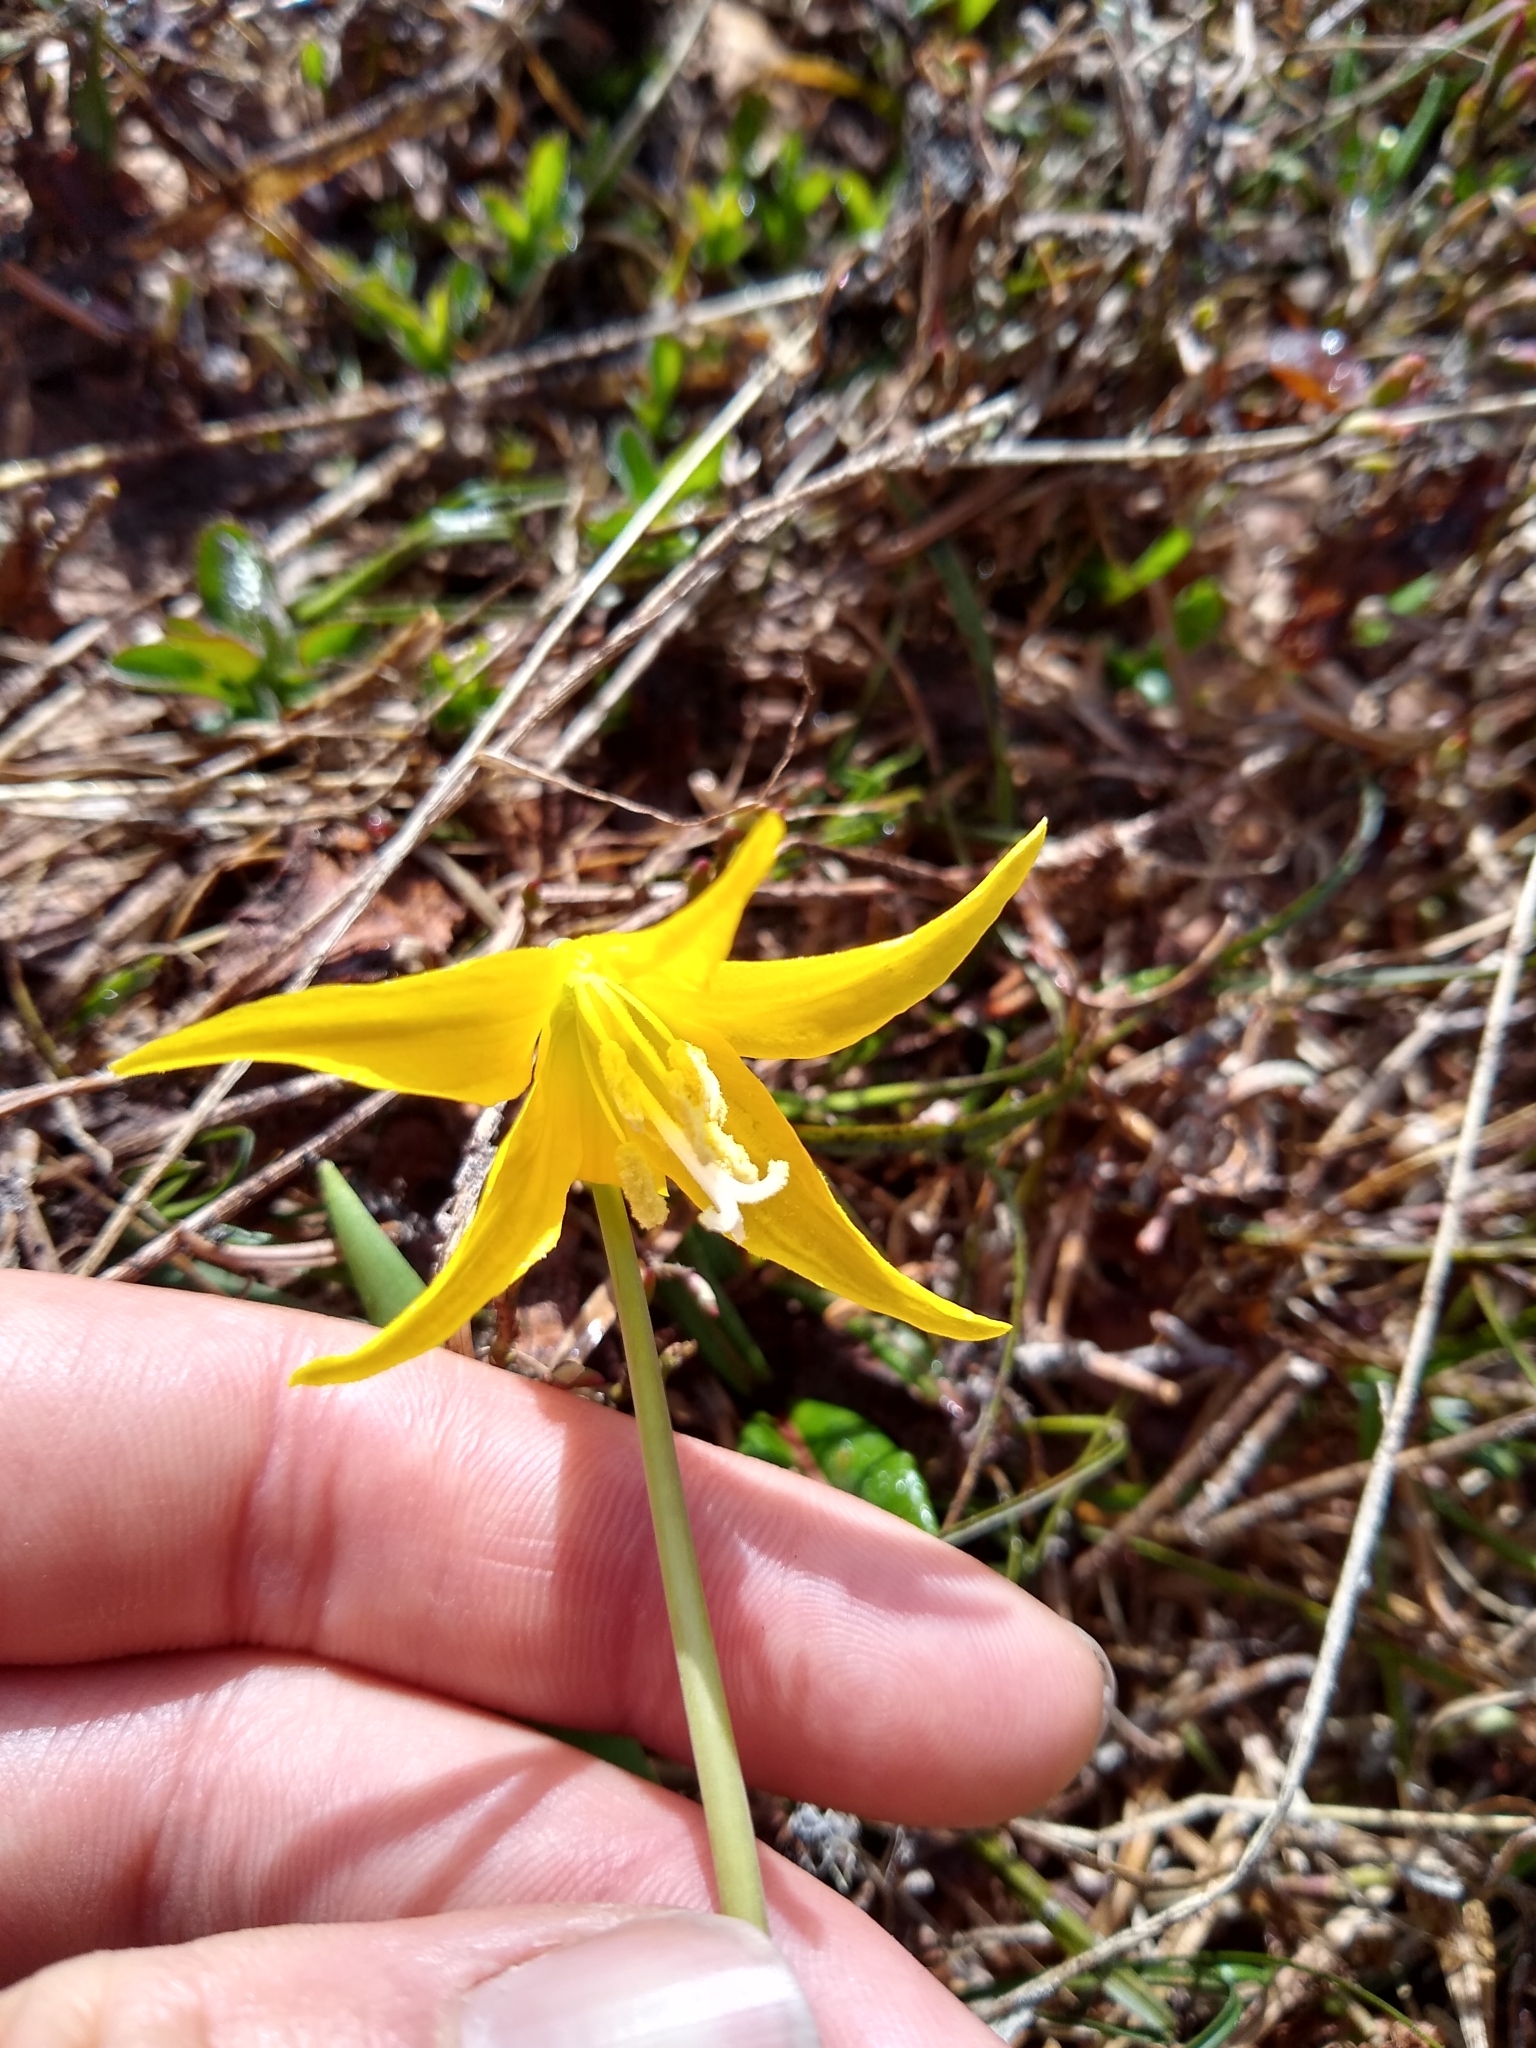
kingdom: Plantae
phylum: Tracheophyta
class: Liliopsida
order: Liliales
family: Liliaceae
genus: Erythronium
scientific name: Erythronium grandiflorum
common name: Avalanche-lily
